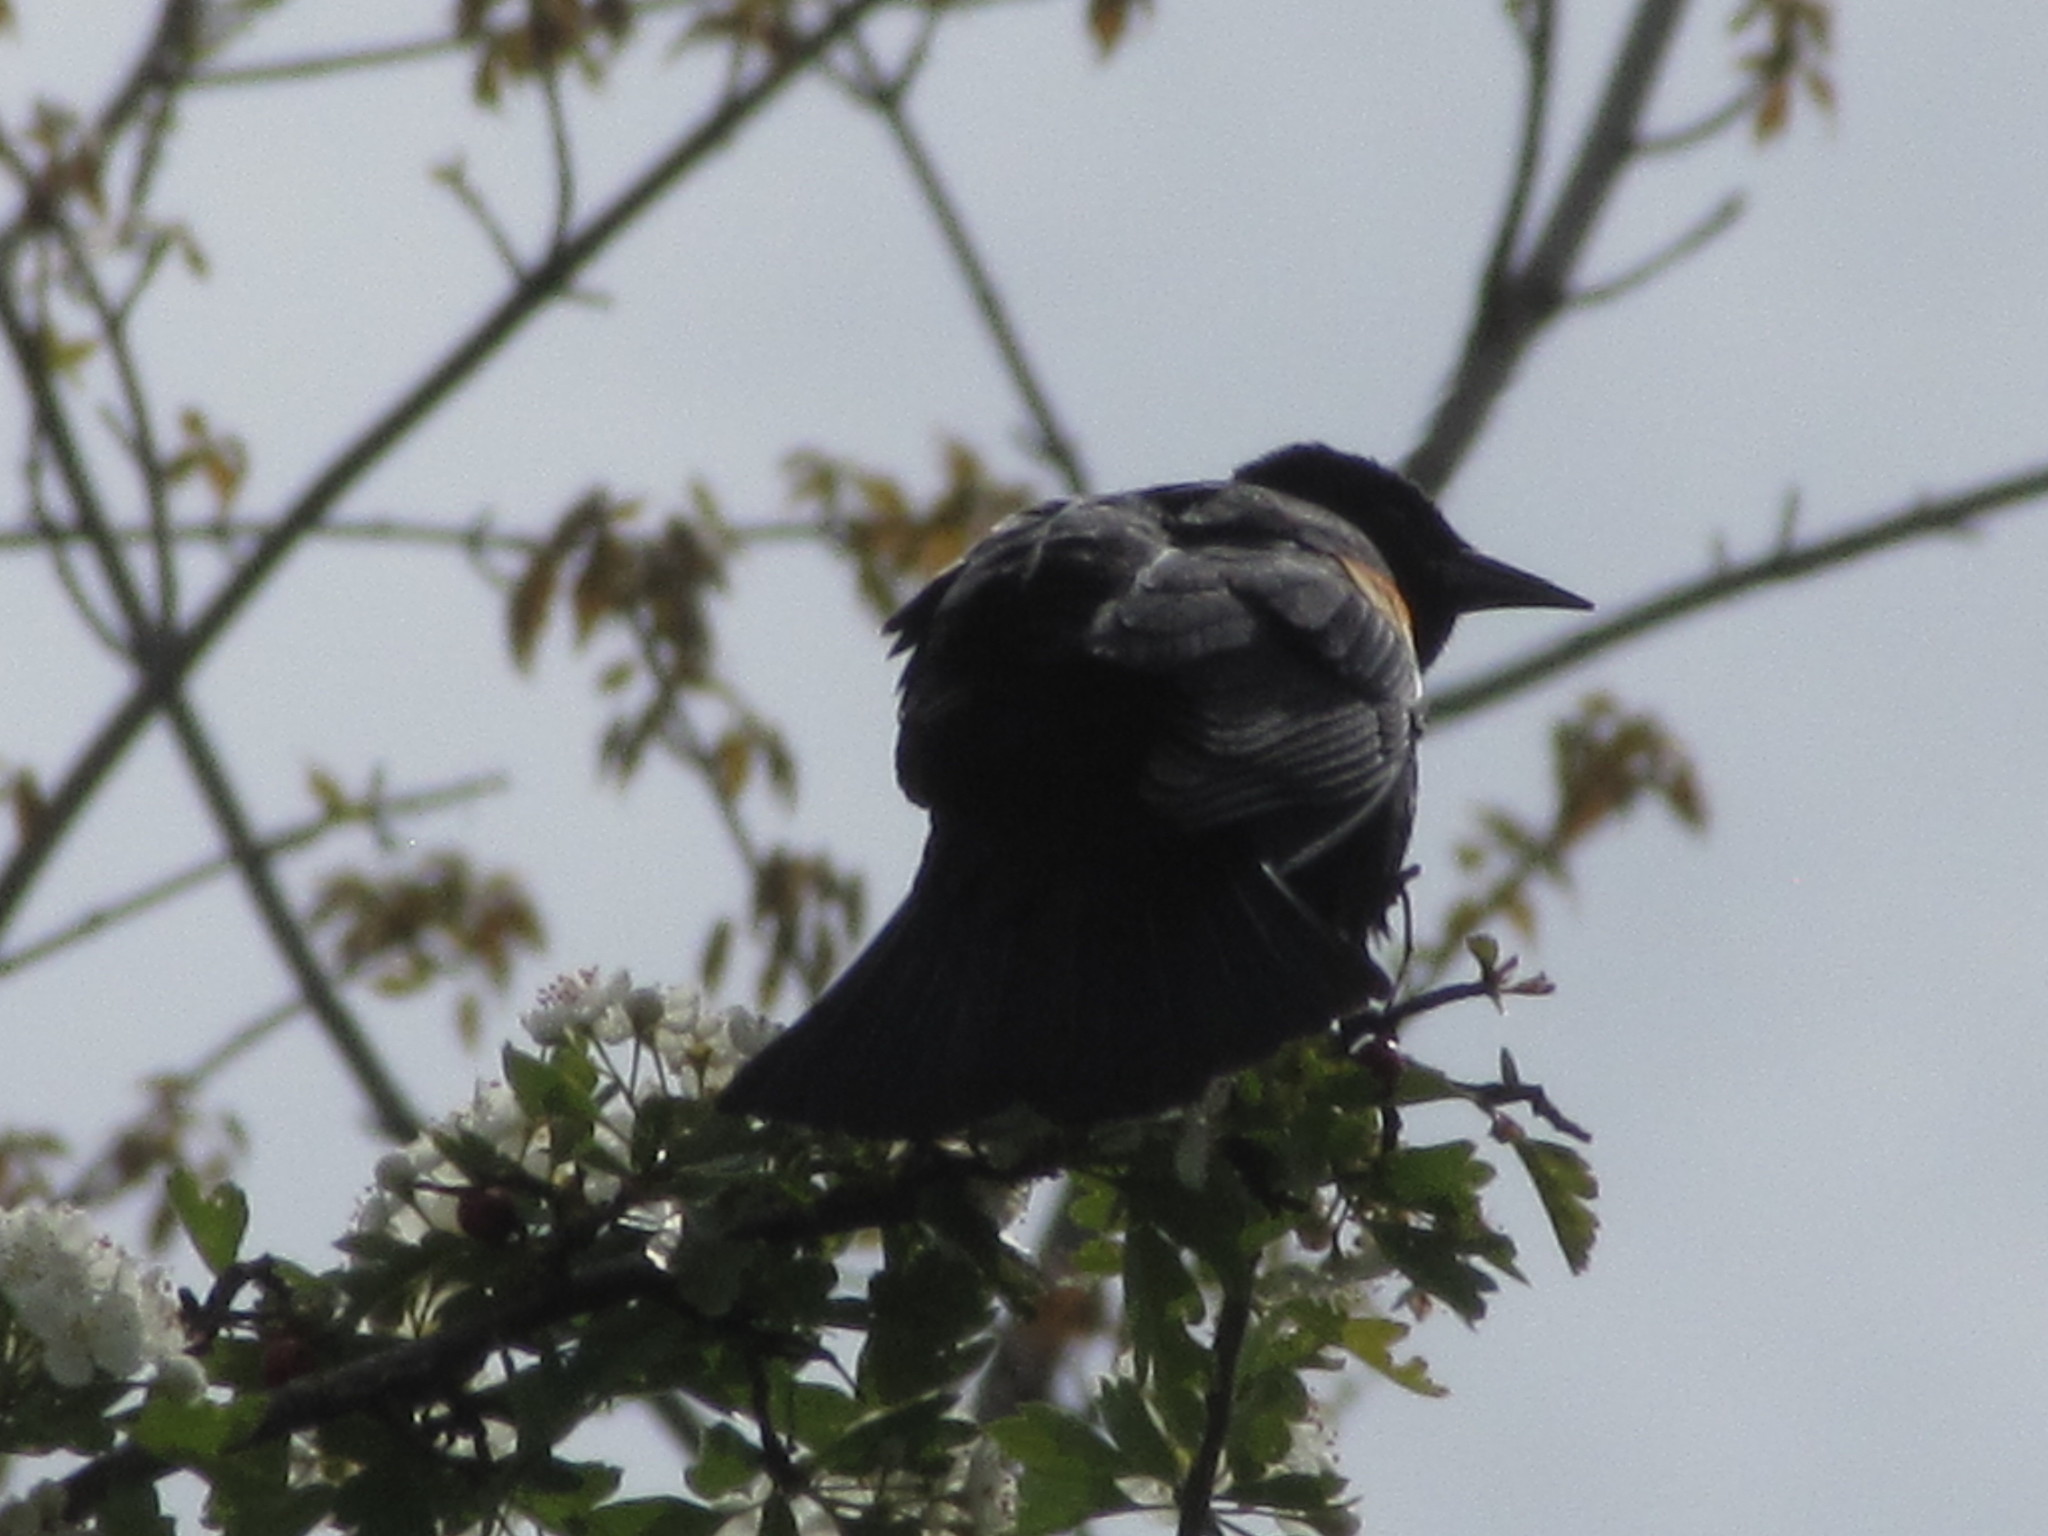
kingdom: Animalia
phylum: Chordata
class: Aves
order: Passeriformes
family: Icteridae
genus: Agelaius
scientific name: Agelaius phoeniceus
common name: Red-winged blackbird
